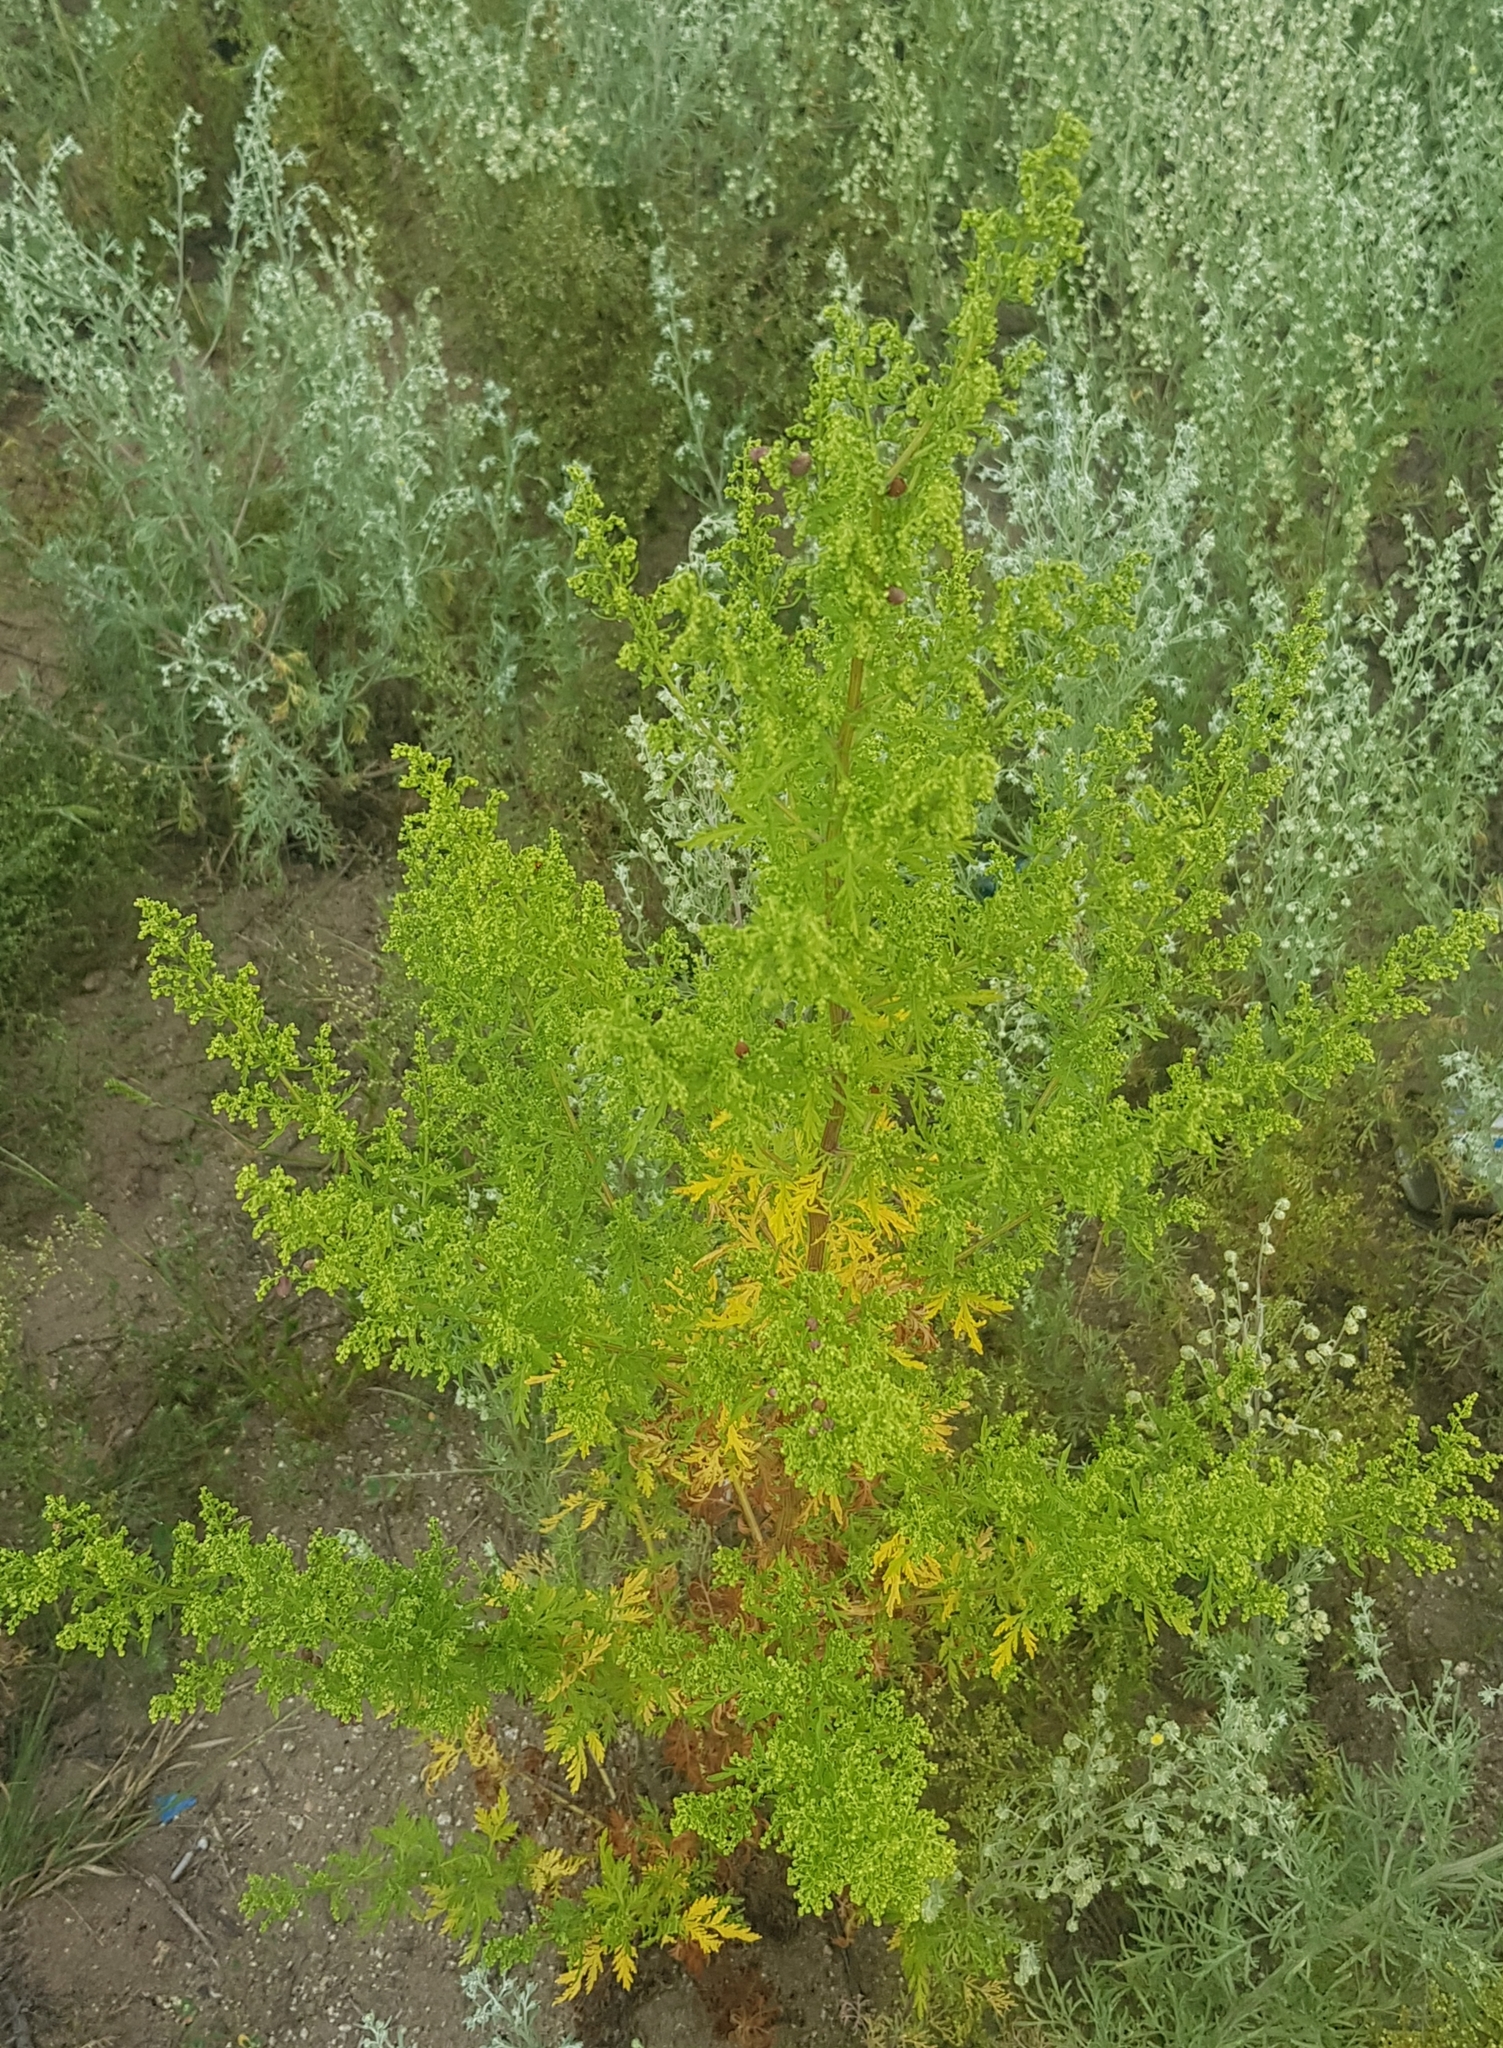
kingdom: Plantae
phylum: Tracheophyta
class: Magnoliopsida
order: Asterales
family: Asteraceae
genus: Artemisia
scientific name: Artemisia annua
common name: Sweet sagewort
